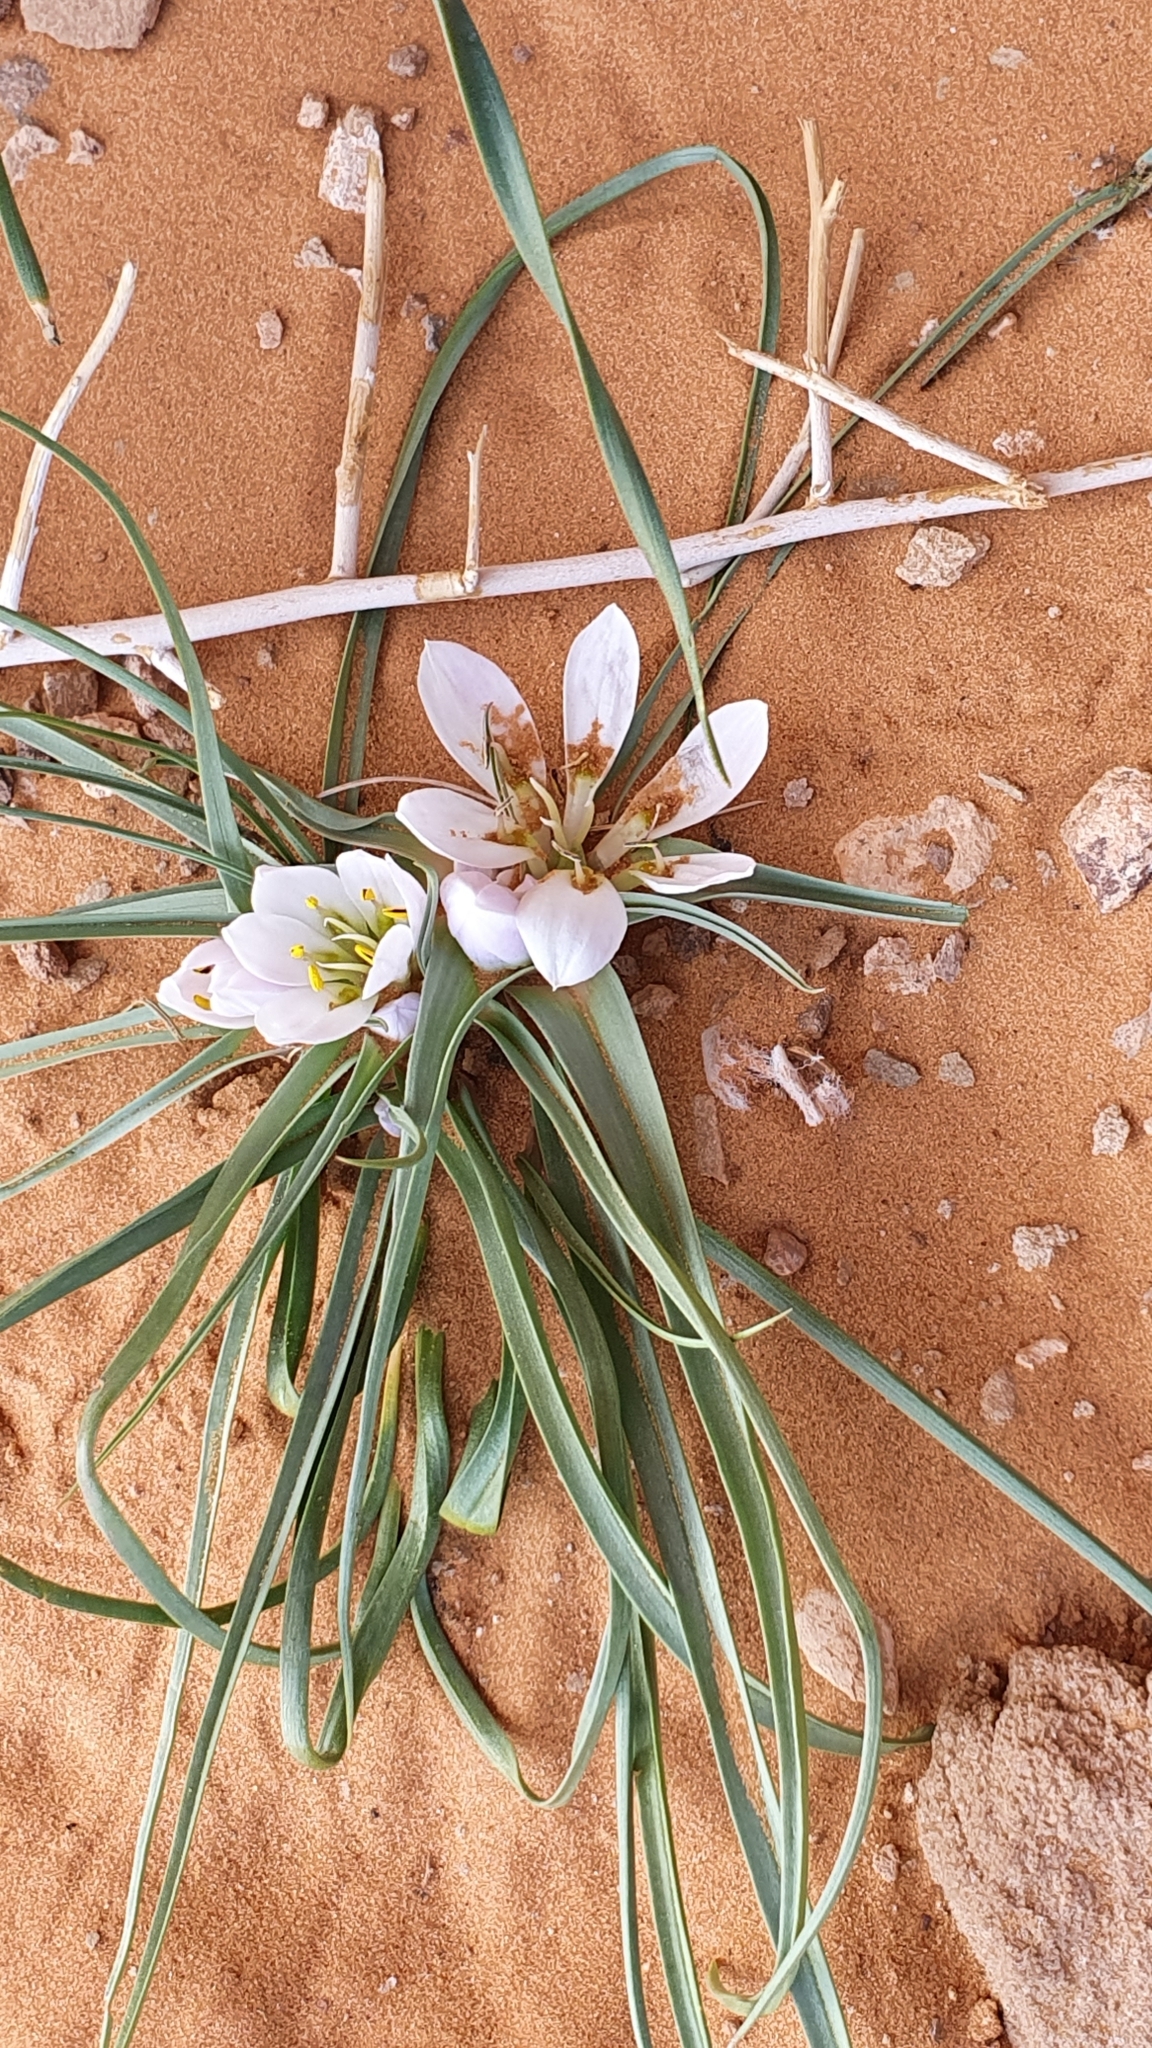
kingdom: Plantae
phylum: Tracheophyta
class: Liliopsida
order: Liliales
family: Colchicaceae
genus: Colchicum
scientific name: Colchicum gramineum
